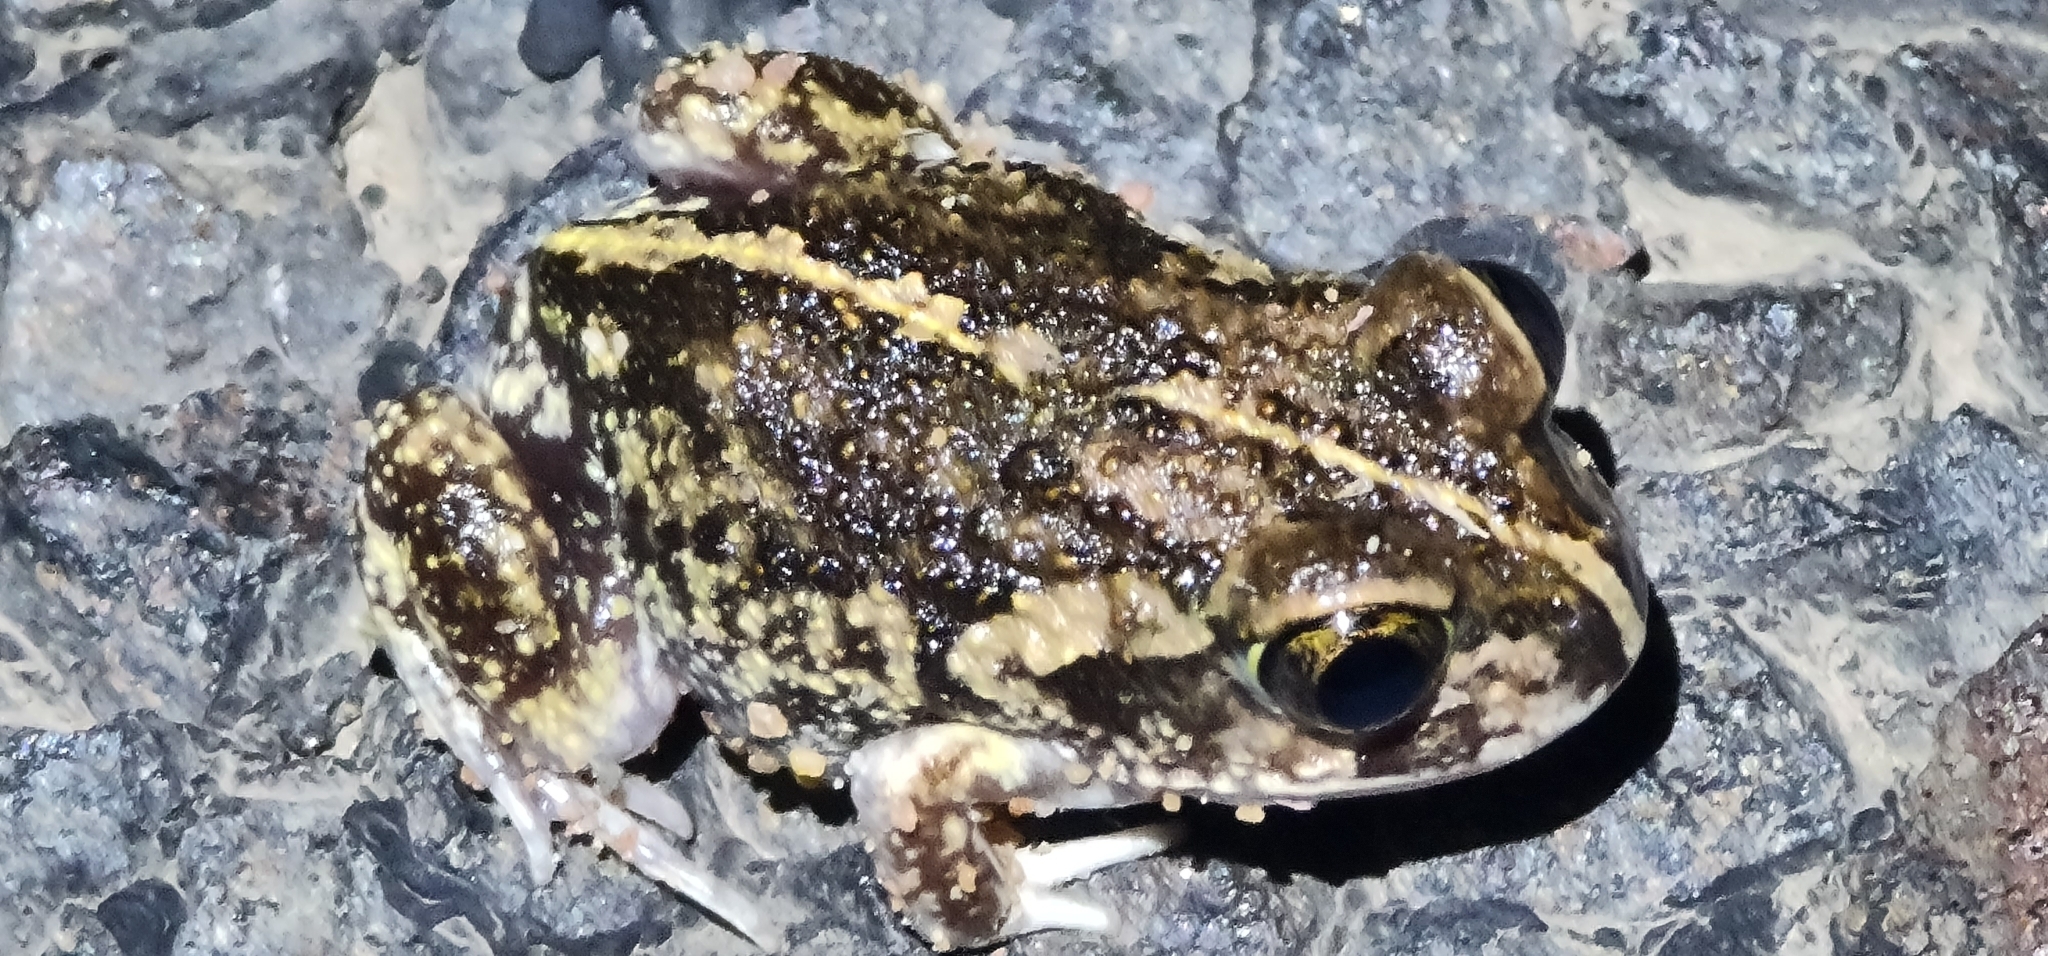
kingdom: Animalia
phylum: Chordata
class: Amphibia
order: Anura
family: Limnodynastidae
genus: Neobatrachus
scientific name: Neobatrachus sudelli
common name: Common spadefoot toad
